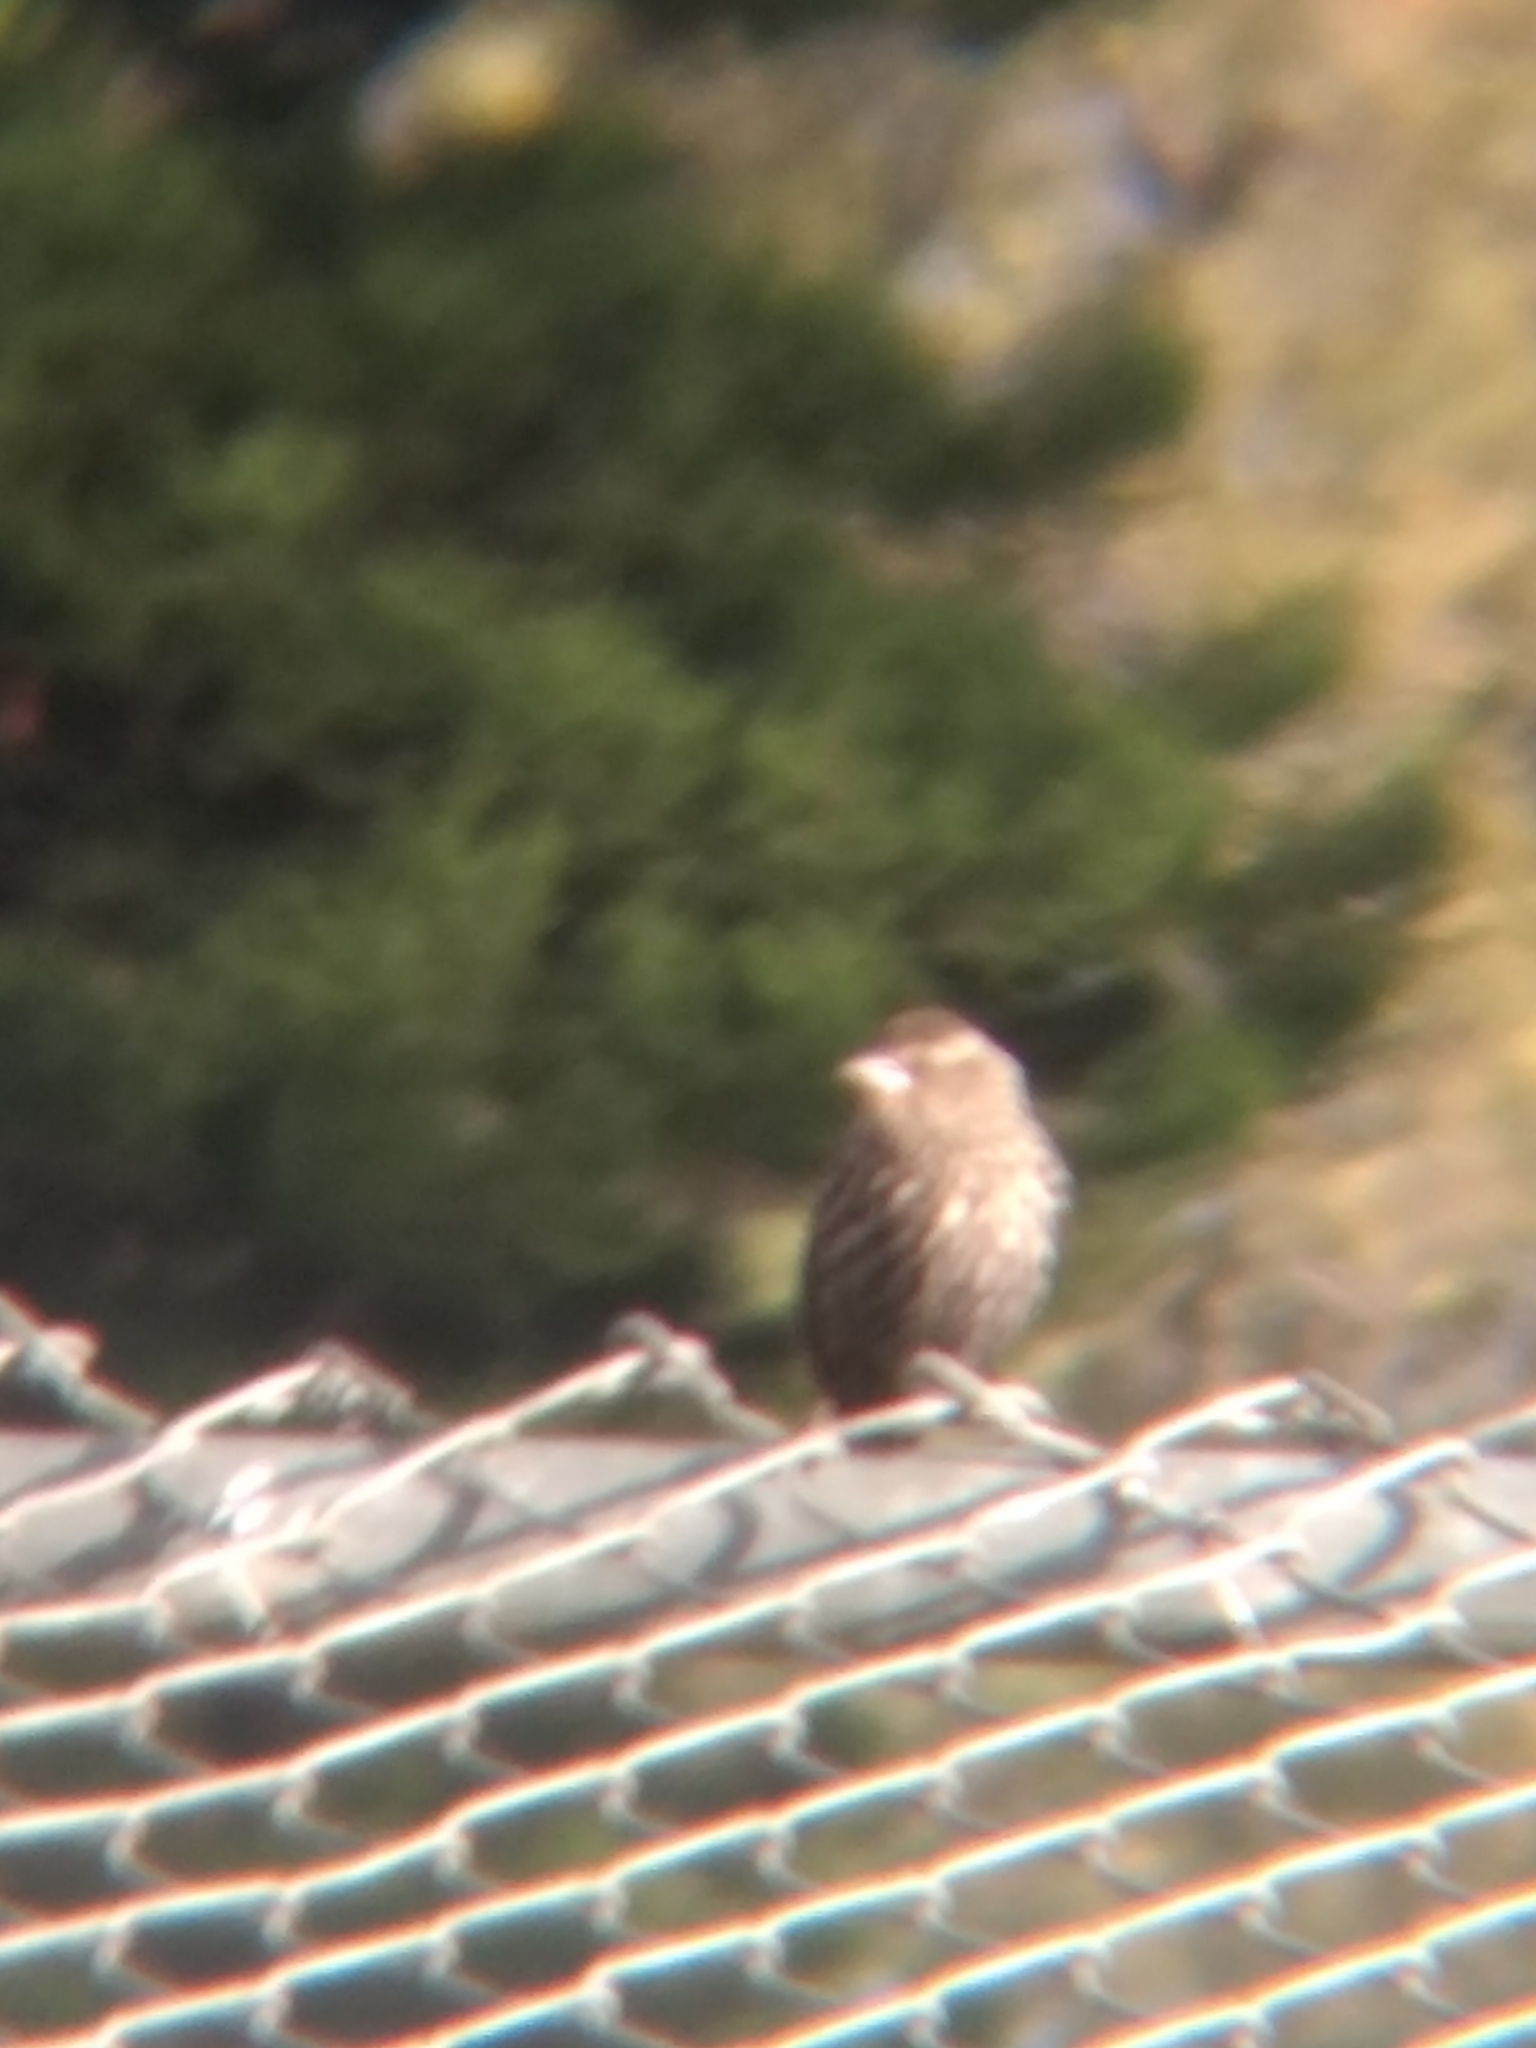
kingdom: Animalia
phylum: Chordata
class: Aves
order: Passeriformes
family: Icteridae
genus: Agelaius
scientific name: Agelaius phoeniceus
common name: Red-winged blackbird
